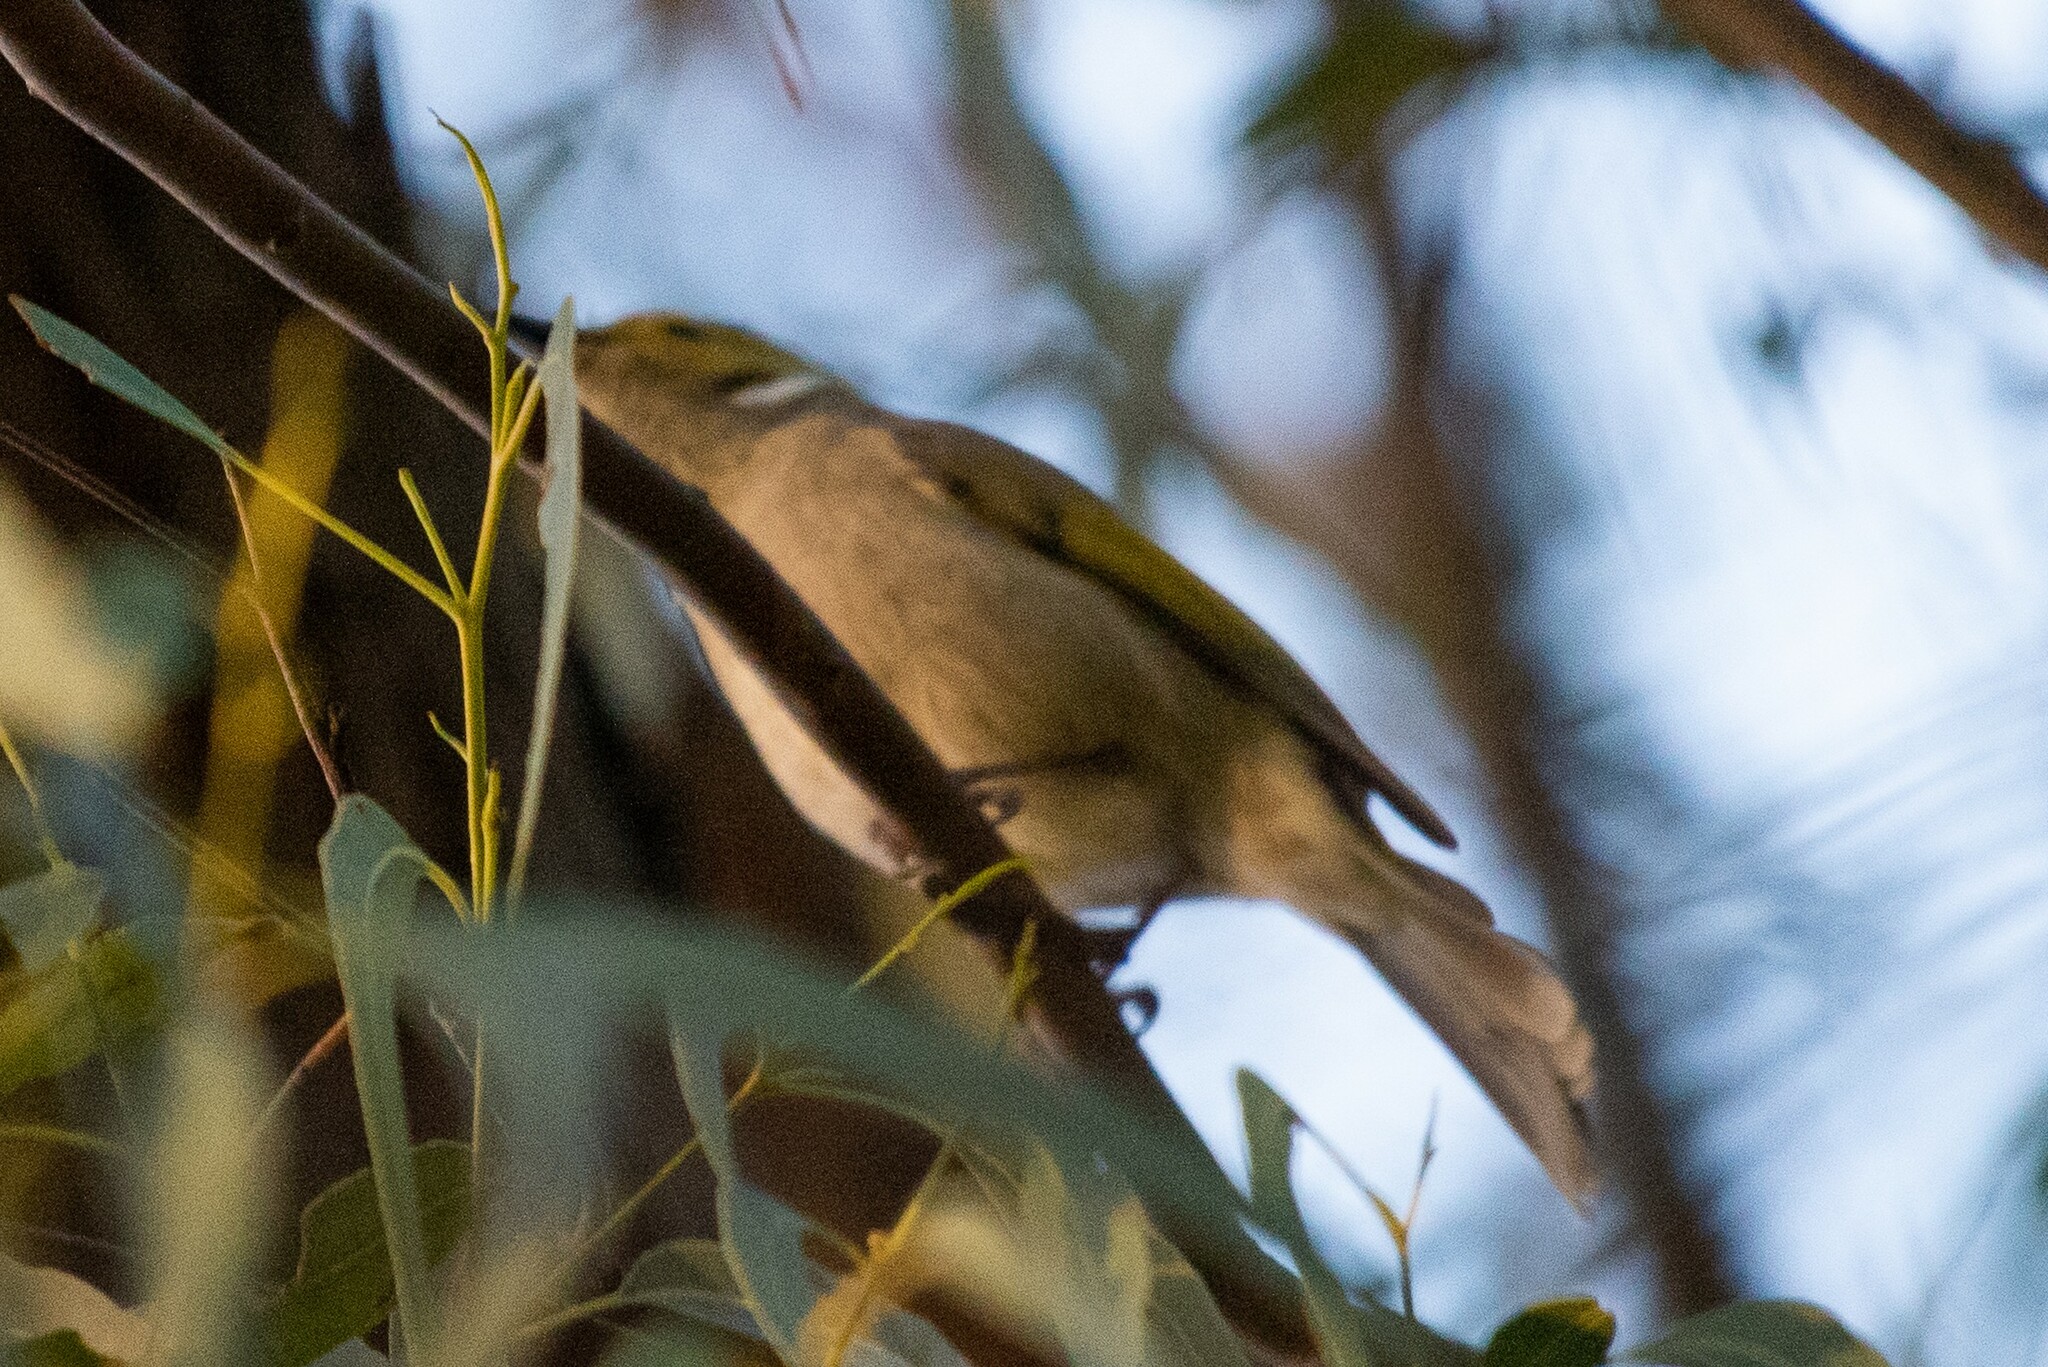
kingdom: Animalia
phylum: Chordata
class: Aves
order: Passeriformes
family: Meliphagidae
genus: Ptilotula
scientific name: Ptilotula penicillata
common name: White-plumed honeyeater
